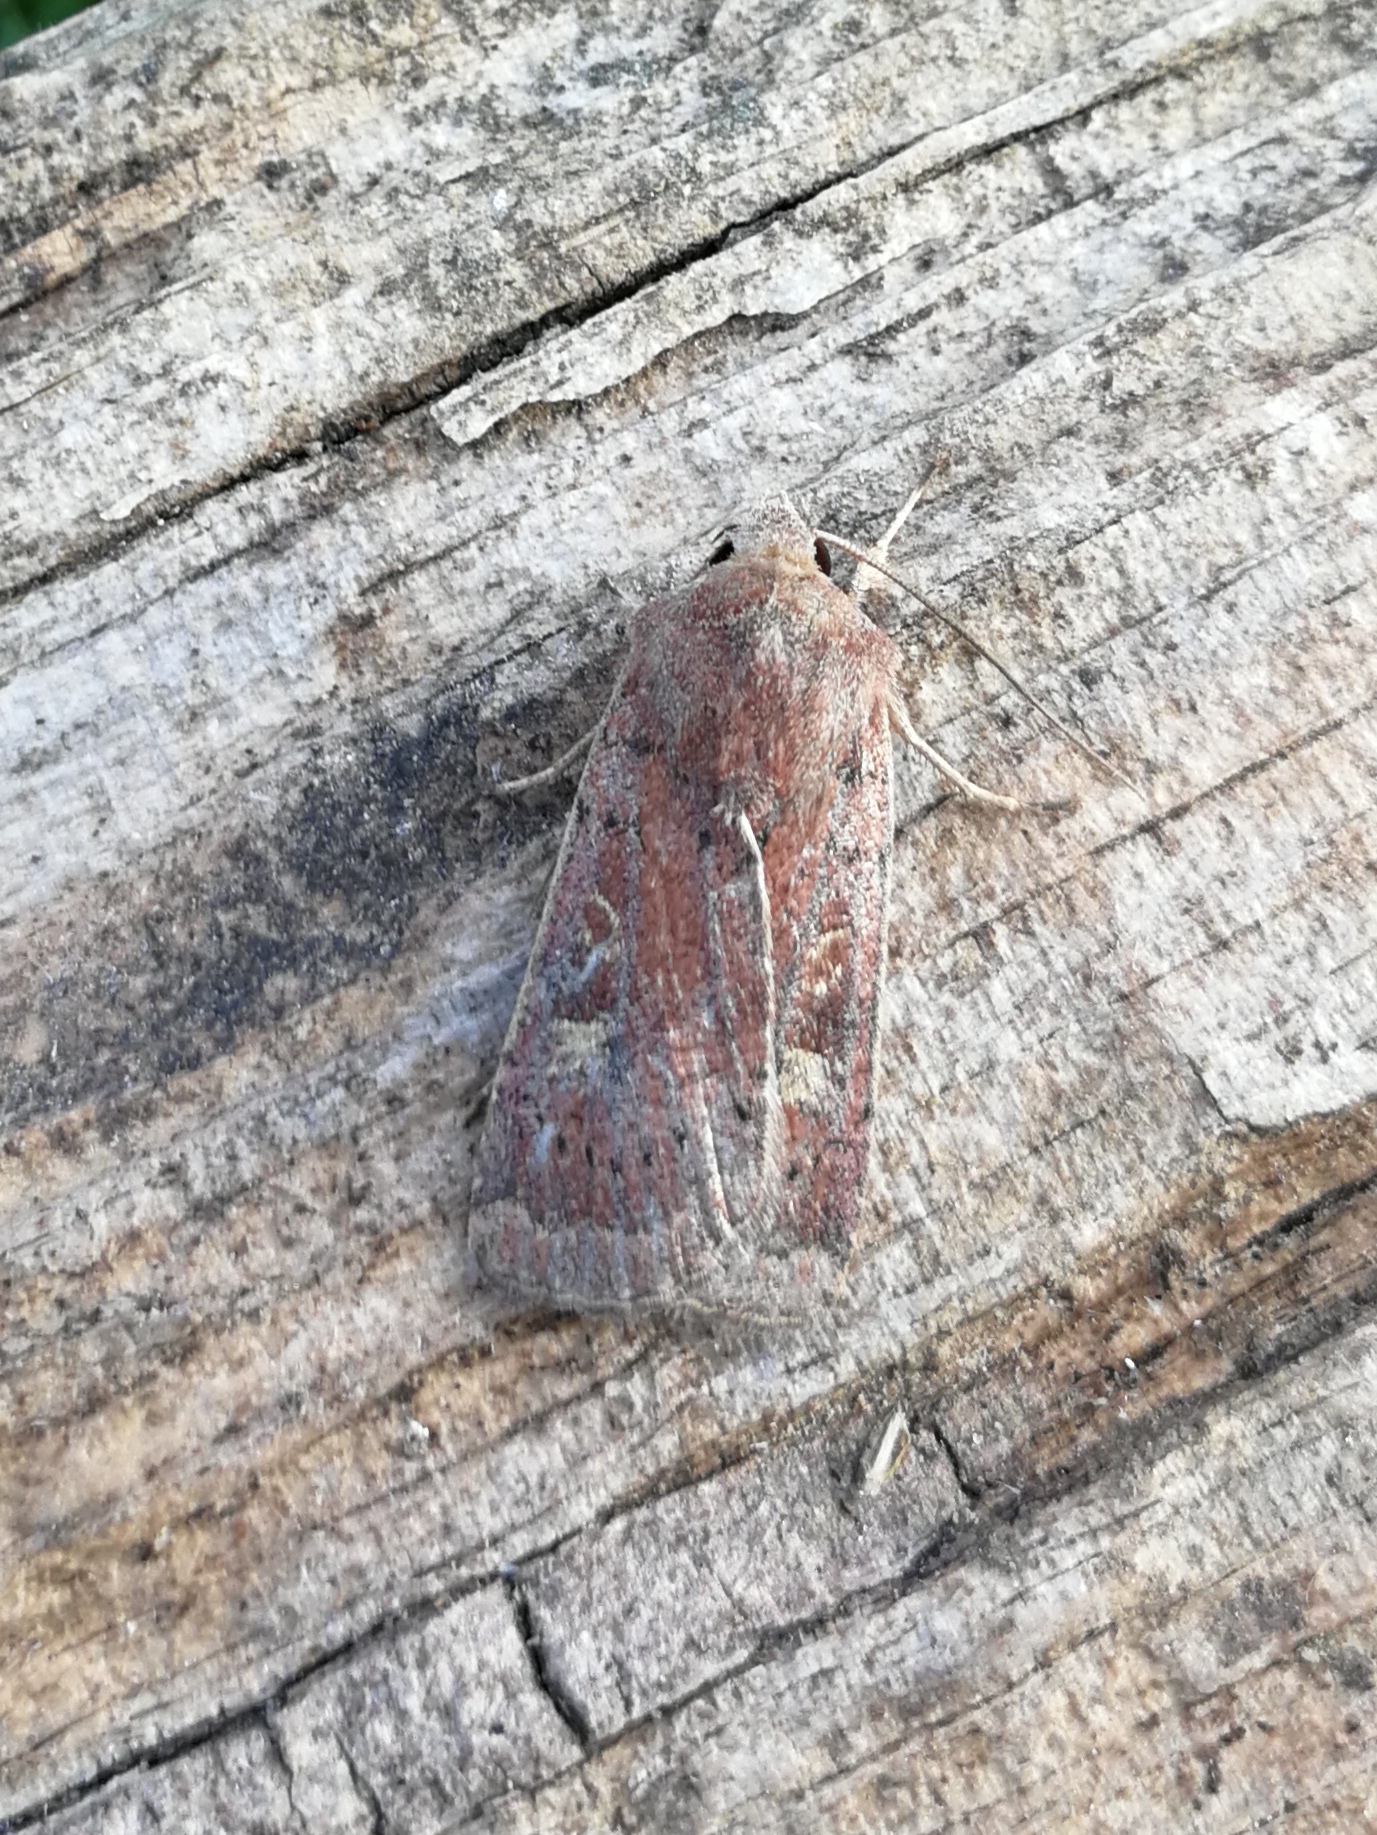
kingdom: Animalia
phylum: Arthropoda
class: Insecta
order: Lepidoptera
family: Noctuidae
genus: Xestia
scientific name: Xestia xanthographa
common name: Square-spot rustic
